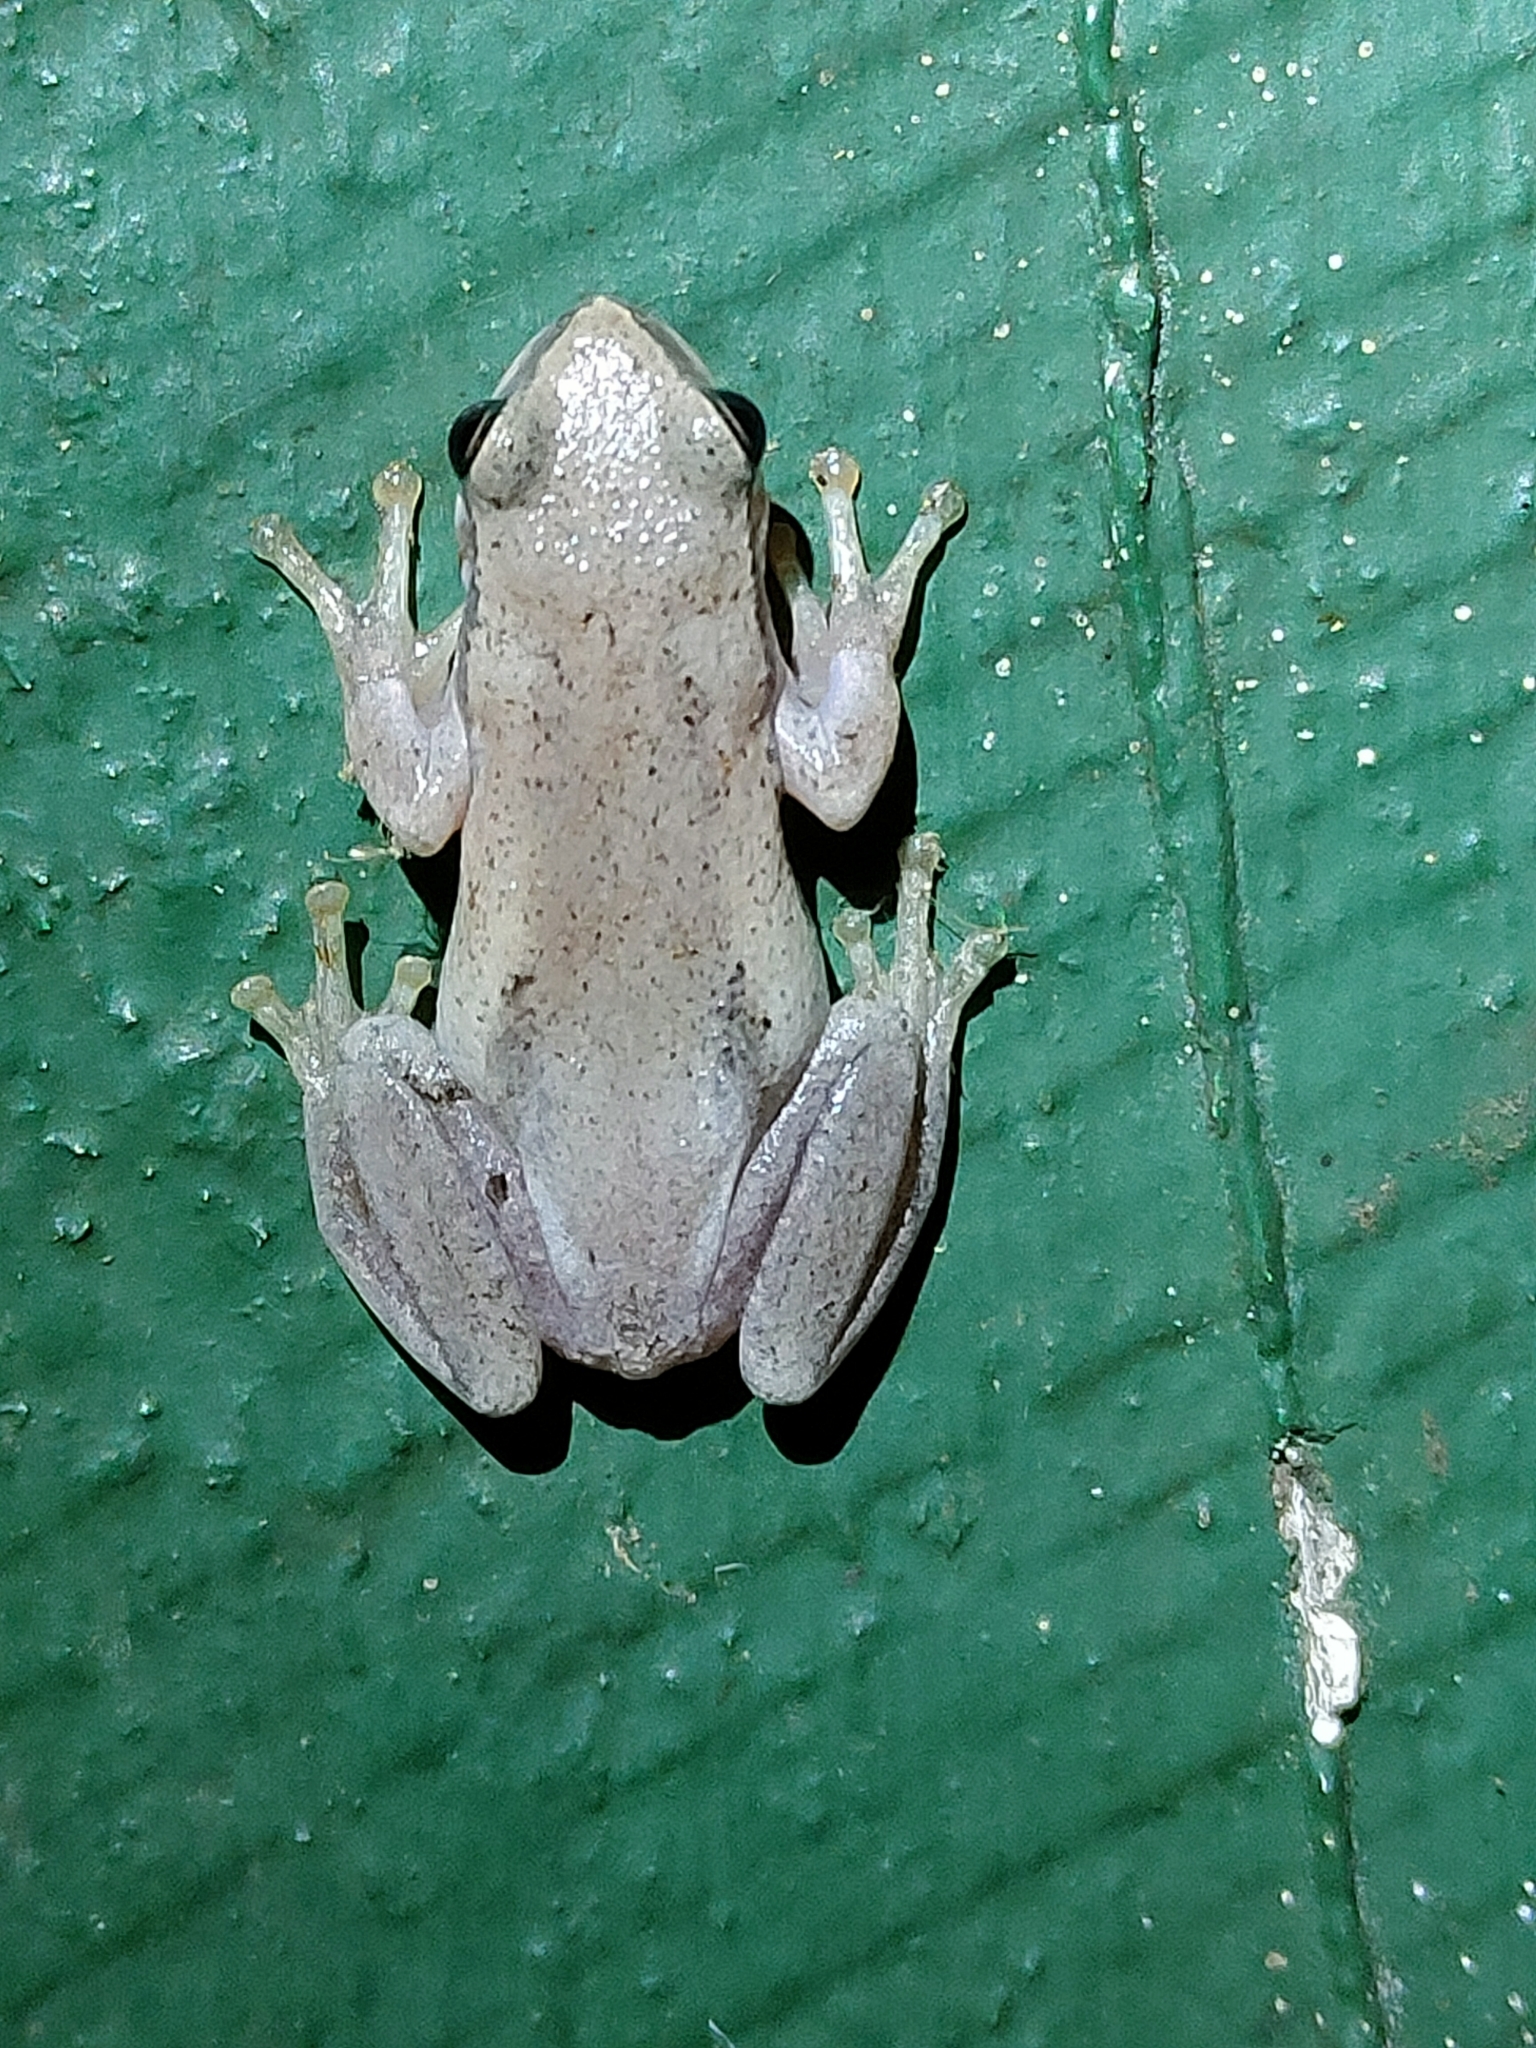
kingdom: Animalia
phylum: Chordata
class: Amphibia
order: Anura
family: Pelodryadidae
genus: Litoria
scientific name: Litoria rubella
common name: Desert tree frog
